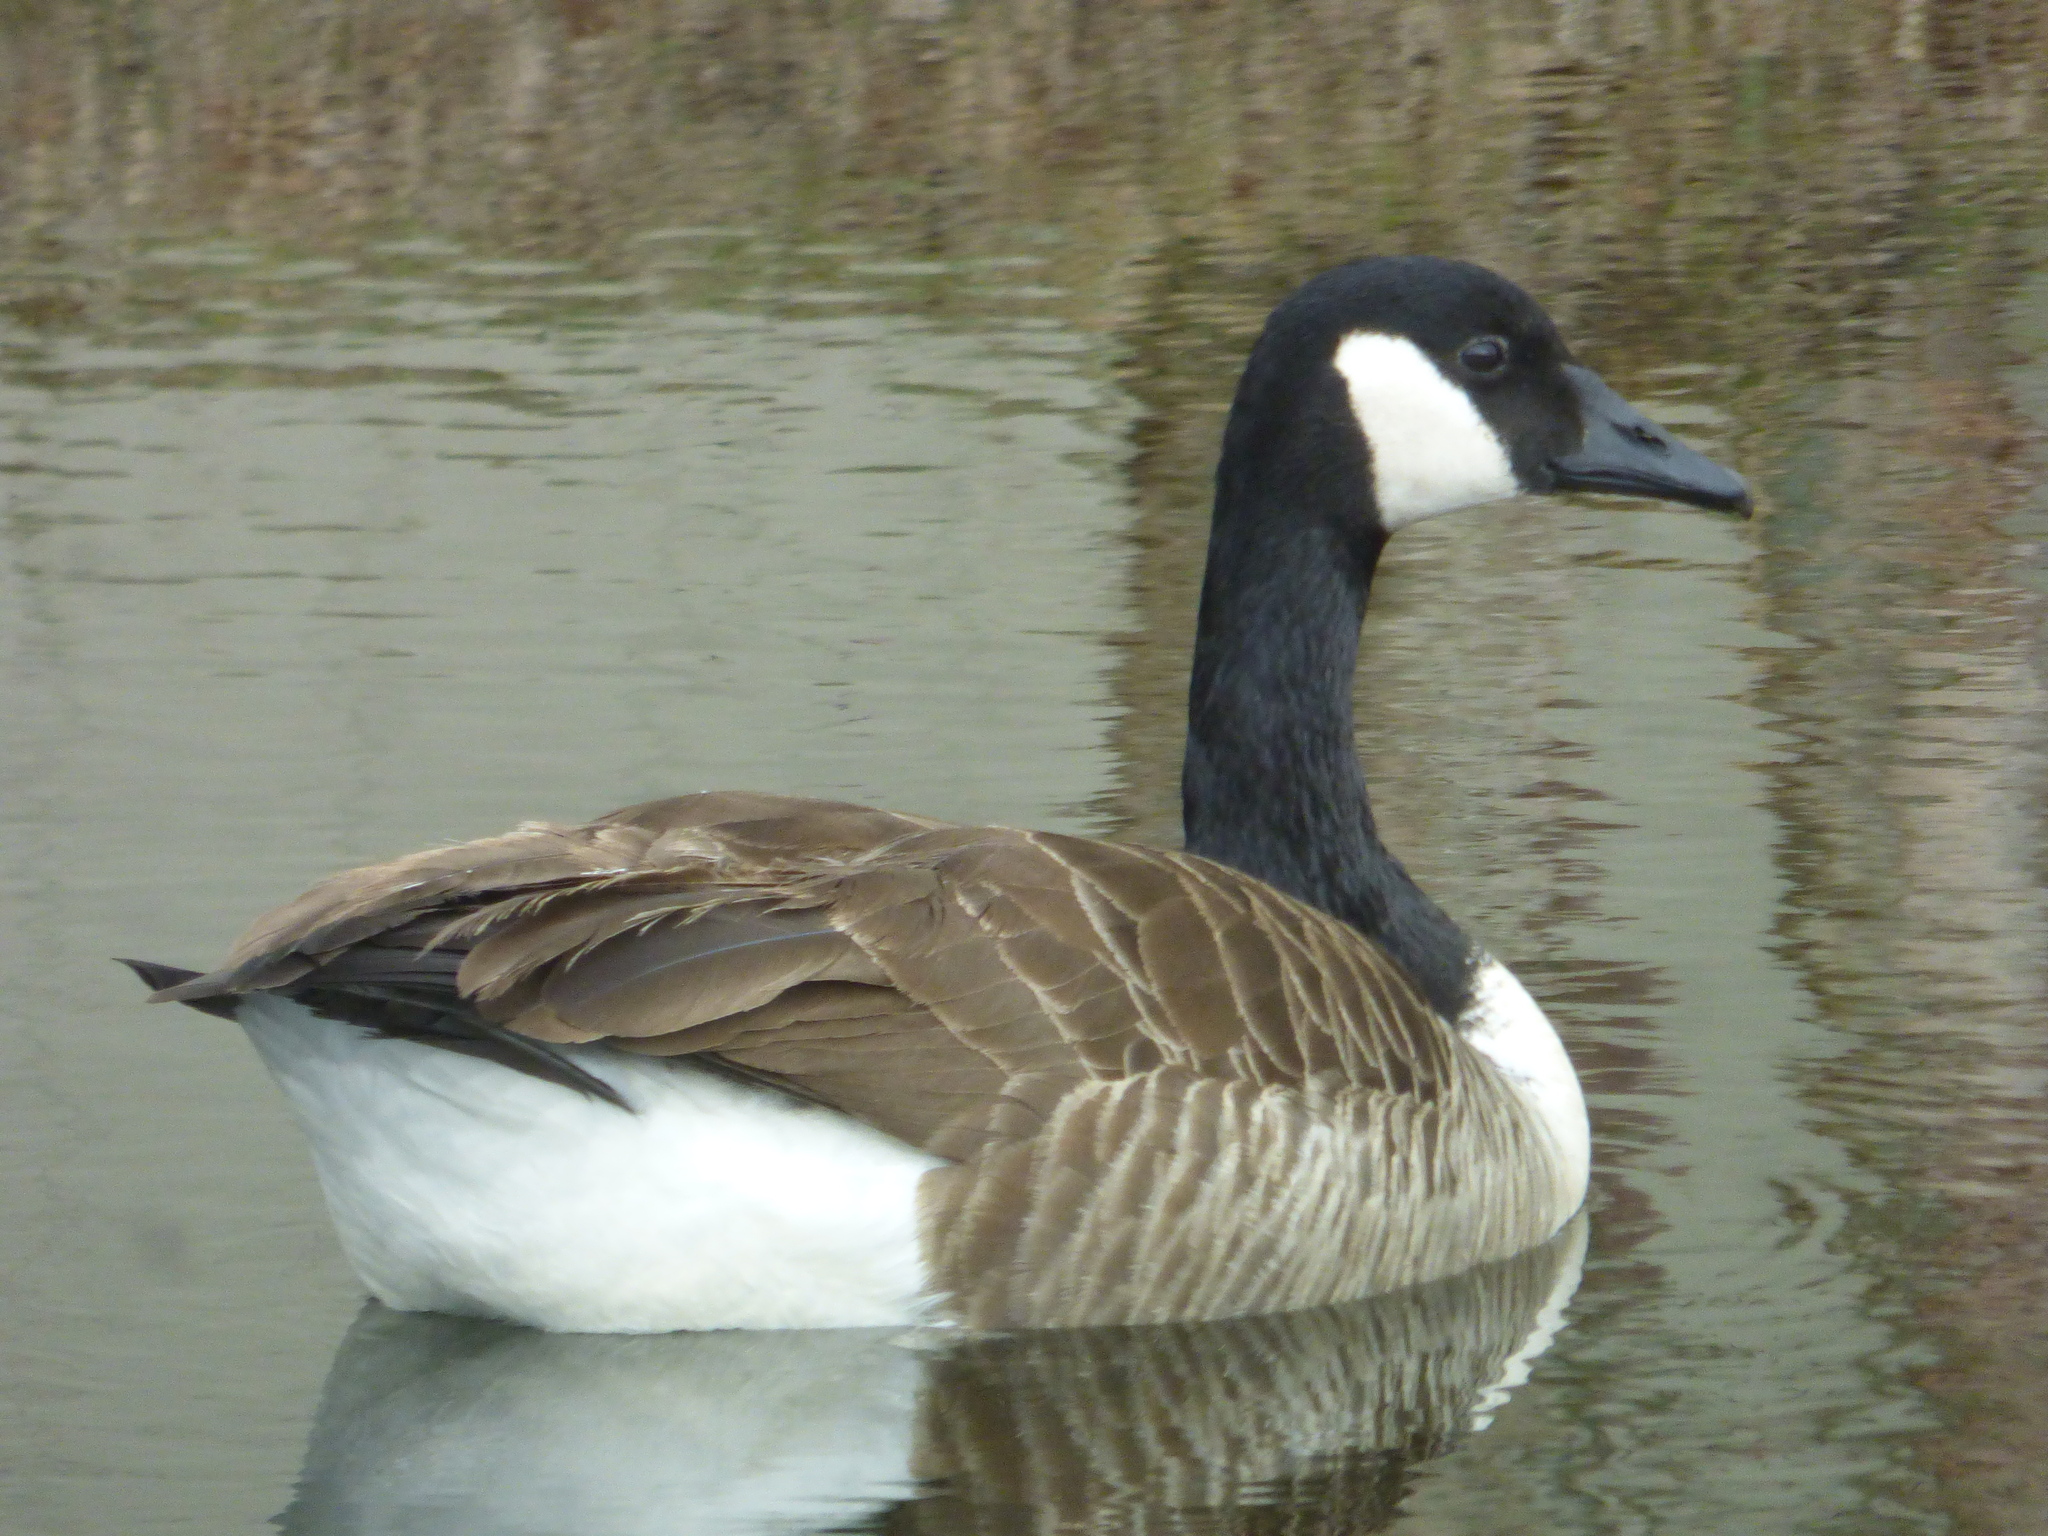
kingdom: Animalia
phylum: Chordata
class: Aves
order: Anseriformes
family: Anatidae
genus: Branta
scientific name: Branta canadensis
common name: Canada goose
